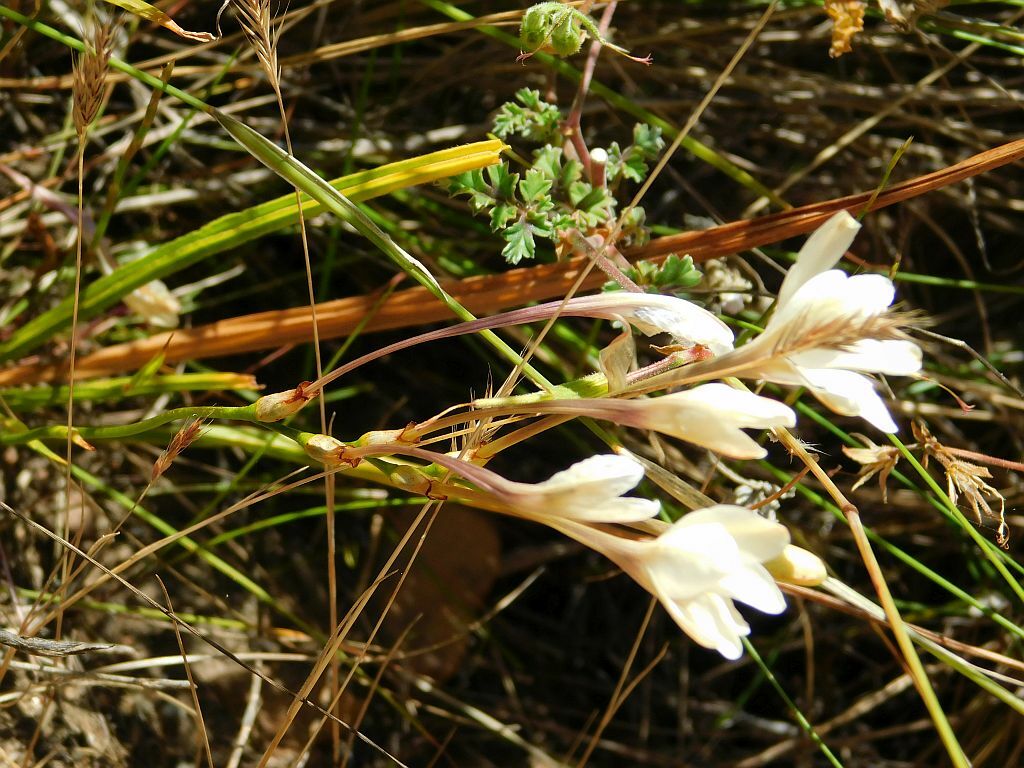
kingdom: Plantae
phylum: Tracheophyta
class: Liliopsida
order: Asparagales
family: Iridaceae
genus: Tritonia
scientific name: Tritonia cooperi
